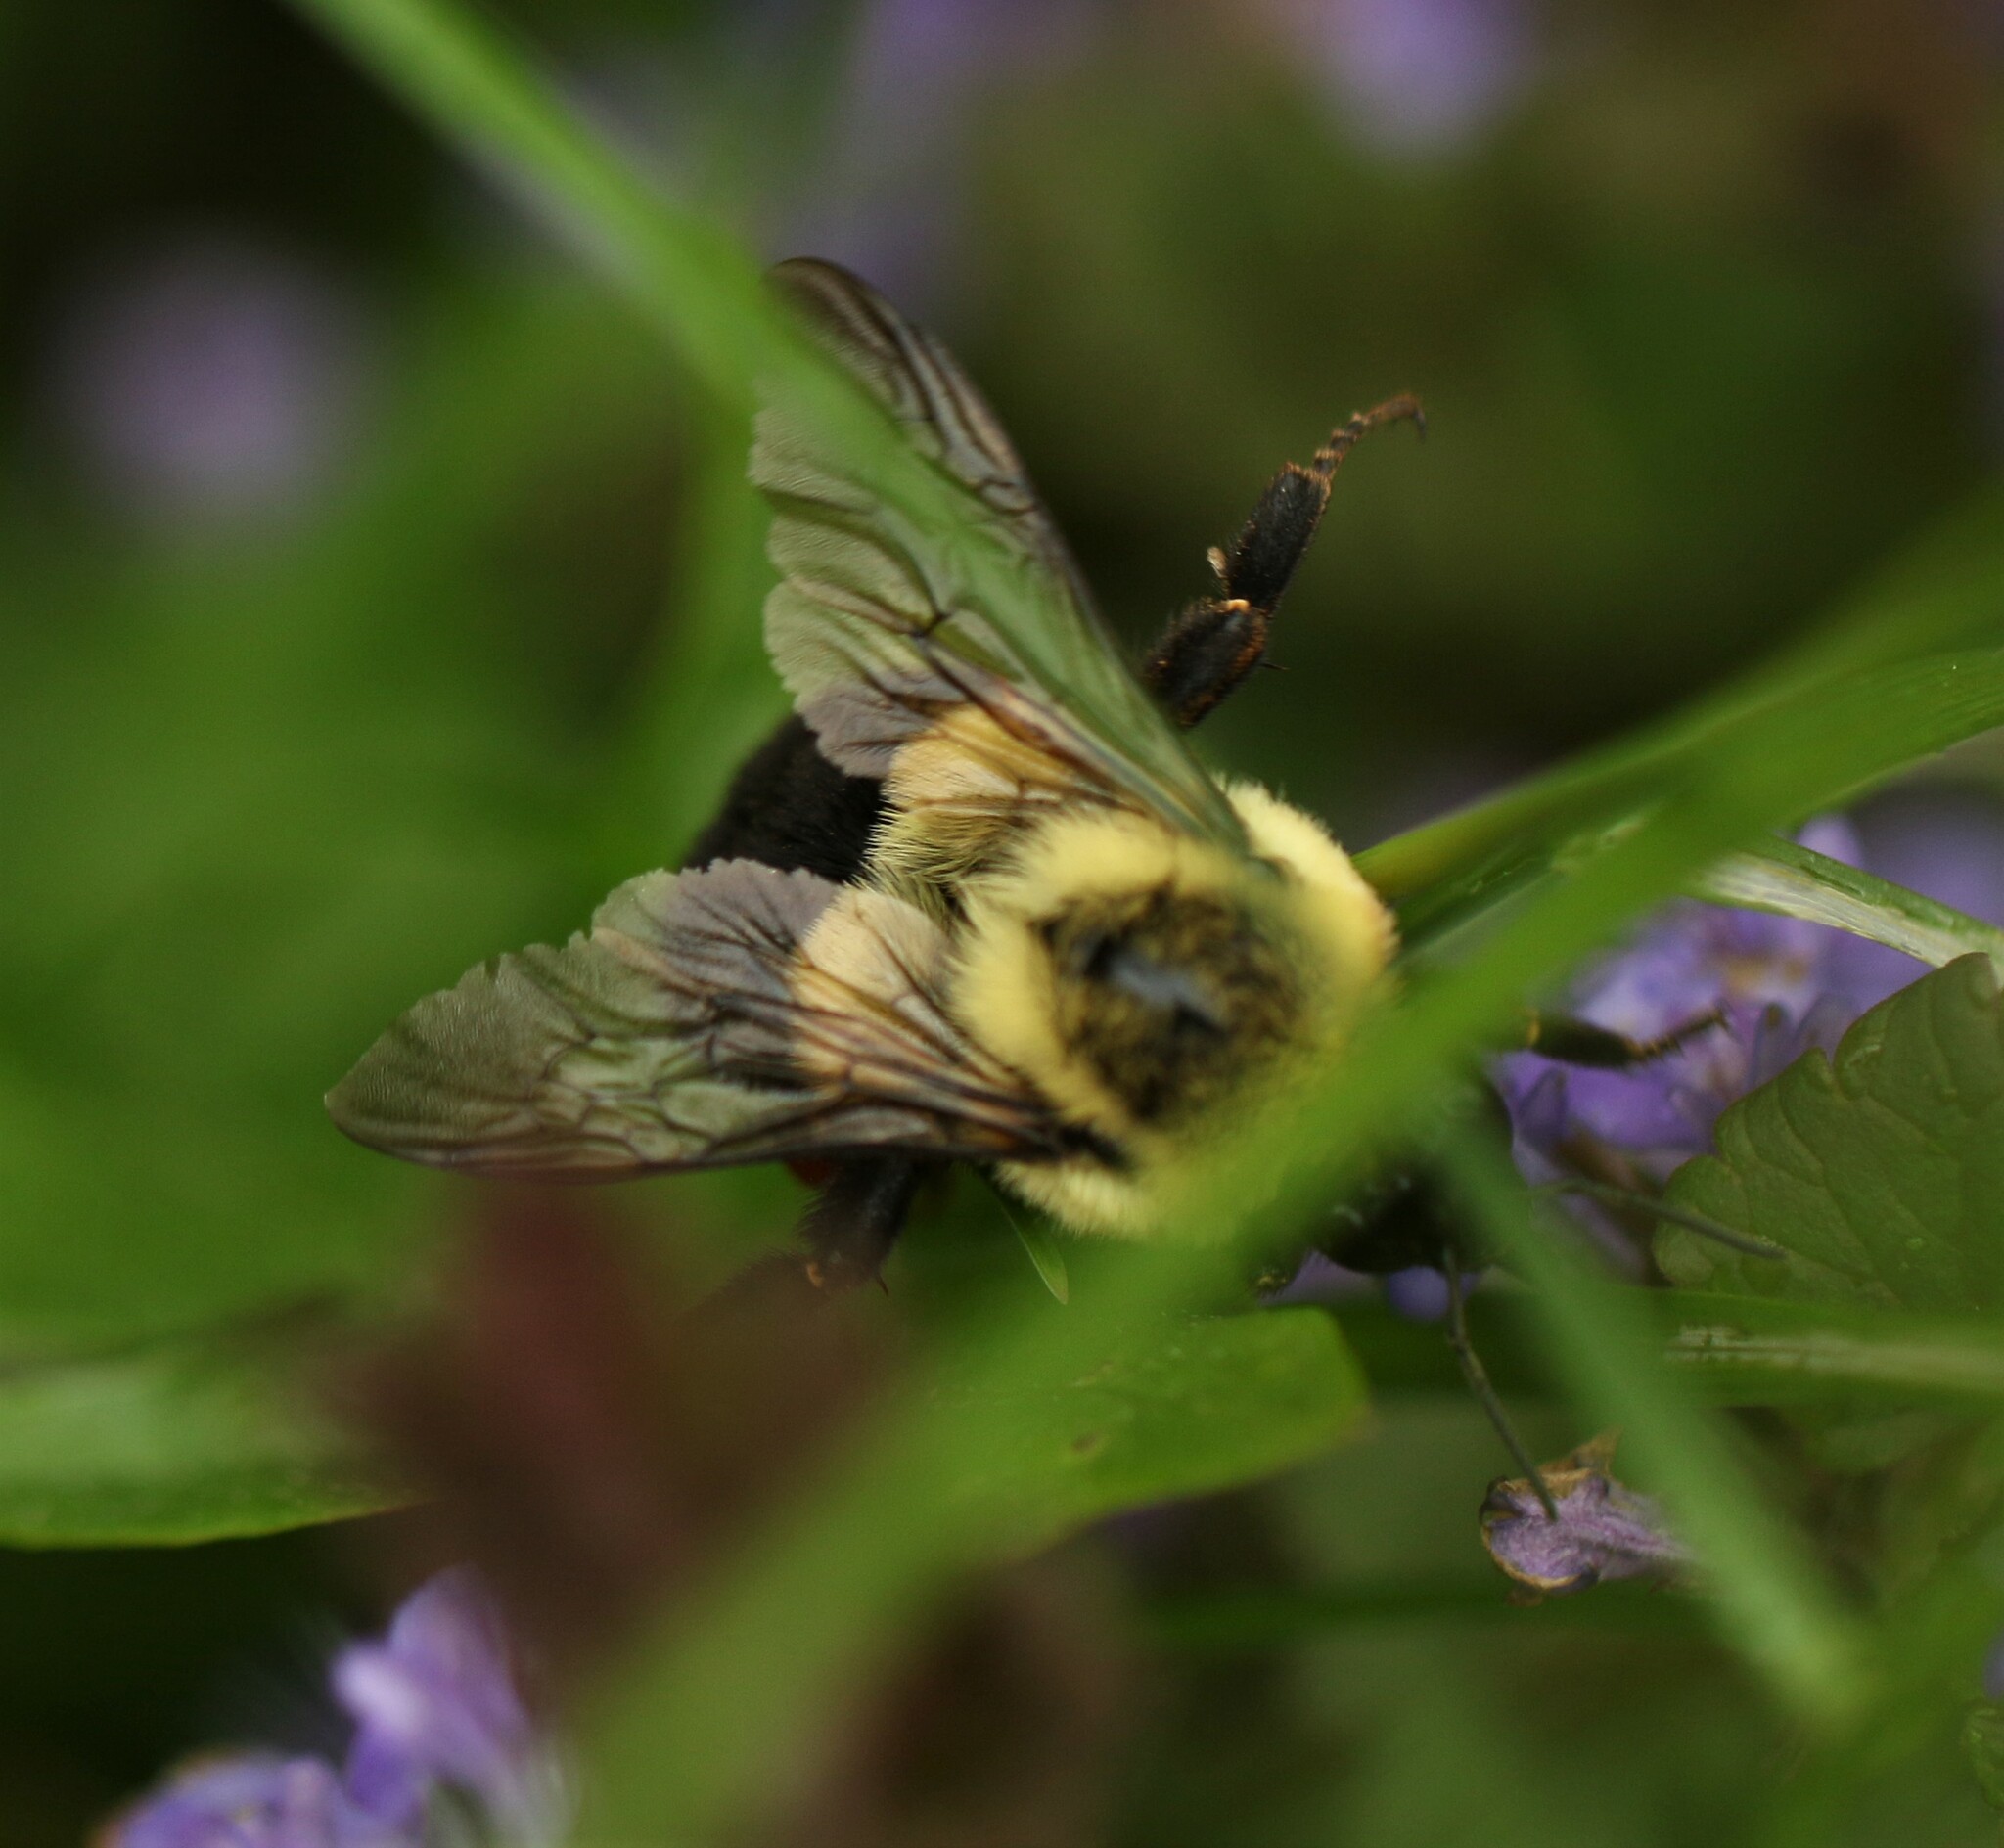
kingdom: Animalia
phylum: Arthropoda
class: Insecta
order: Hymenoptera
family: Apidae
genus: Bombus
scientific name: Bombus impatiens
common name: Common eastern bumble bee
